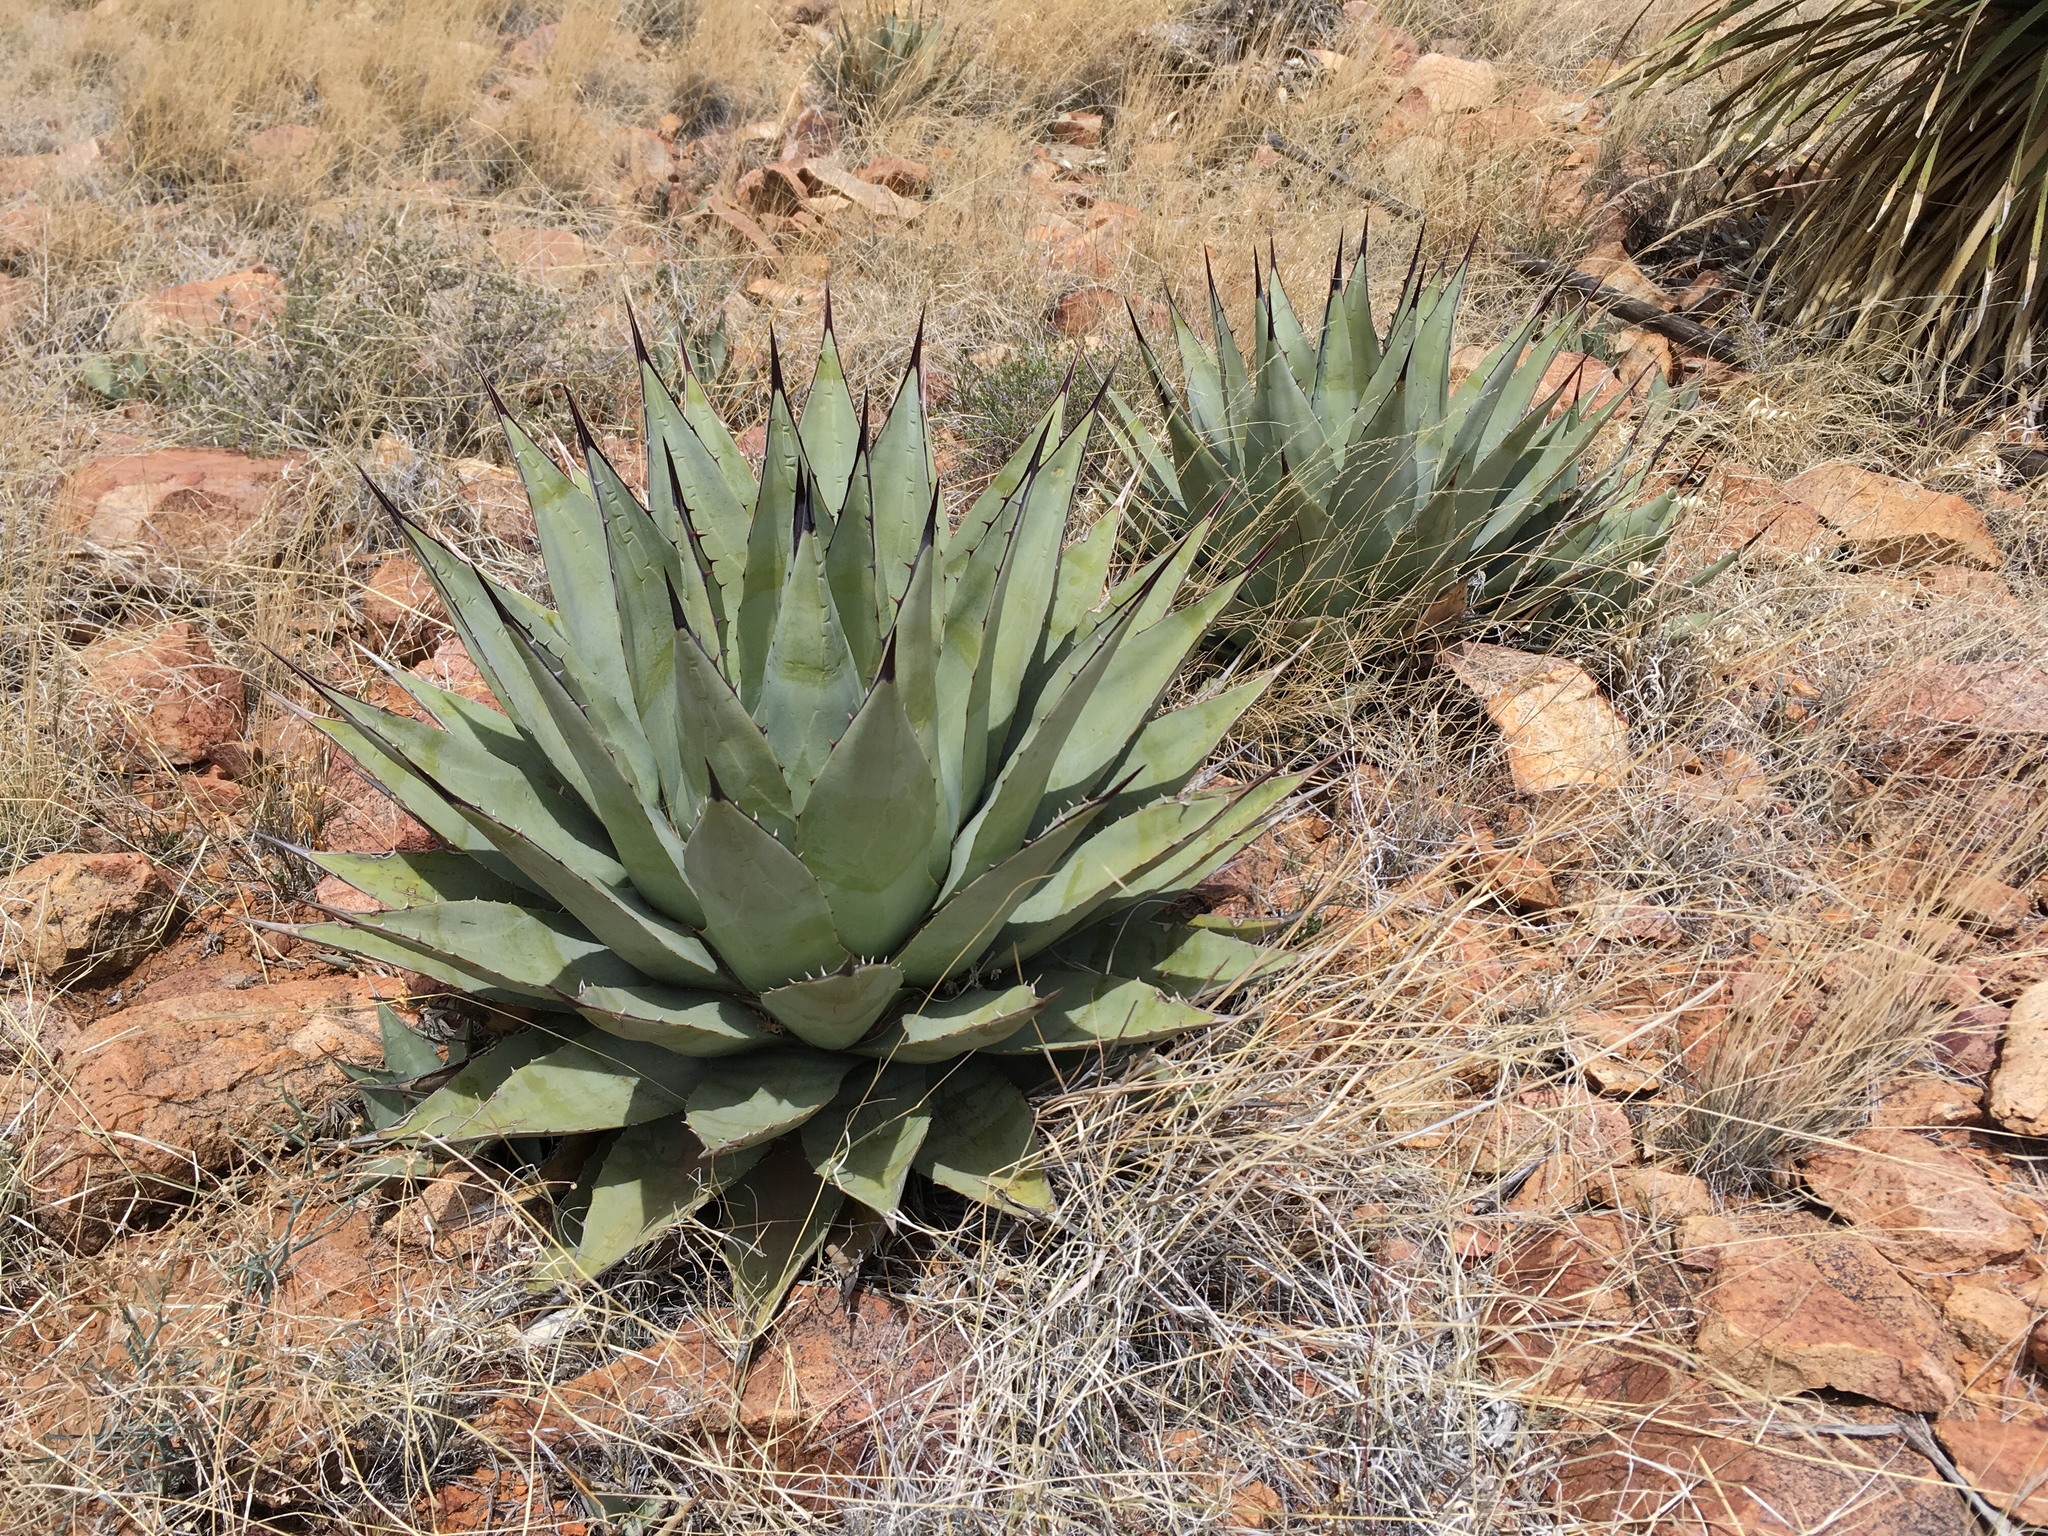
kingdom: Plantae
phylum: Tracheophyta
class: Liliopsida
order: Asparagales
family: Asparagaceae
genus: Agave
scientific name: Agave parryi
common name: Parry's agave
